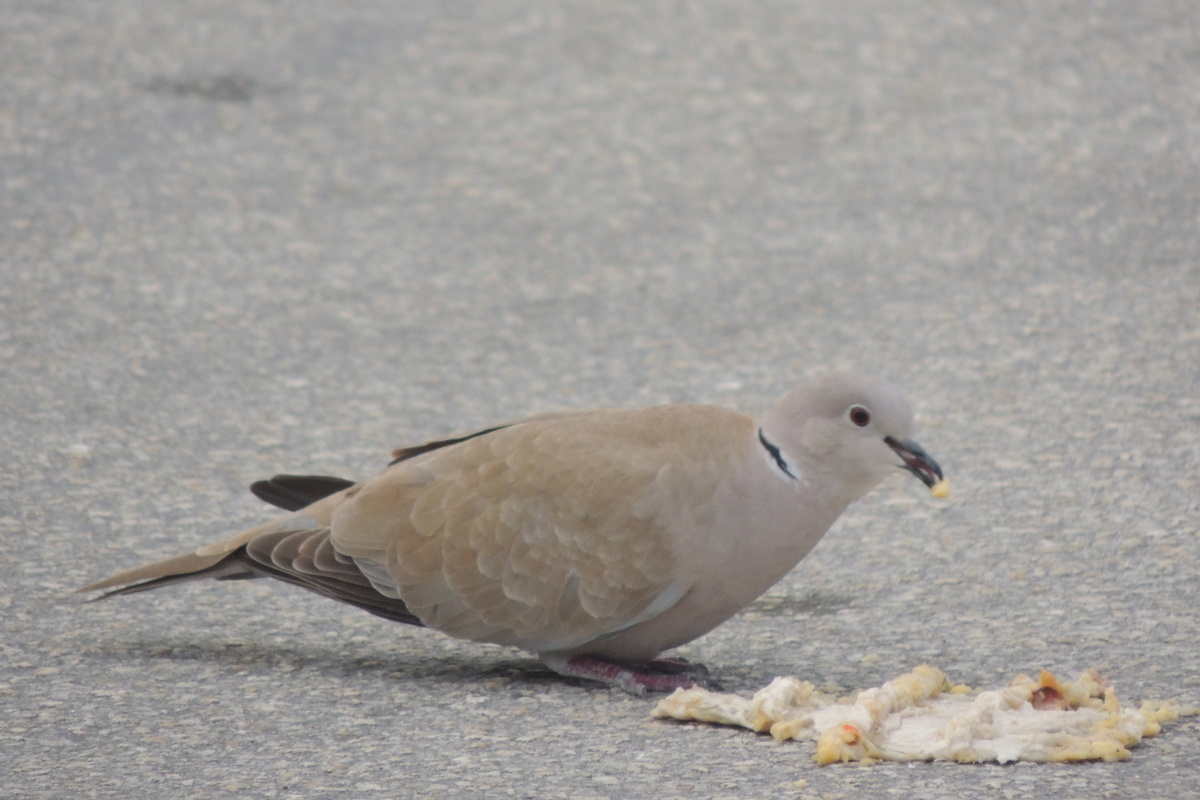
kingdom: Animalia
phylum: Chordata
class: Aves
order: Columbiformes
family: Columbidae
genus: Streptopelia
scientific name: Streptopelia decaocto
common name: Eurasian collared dove
